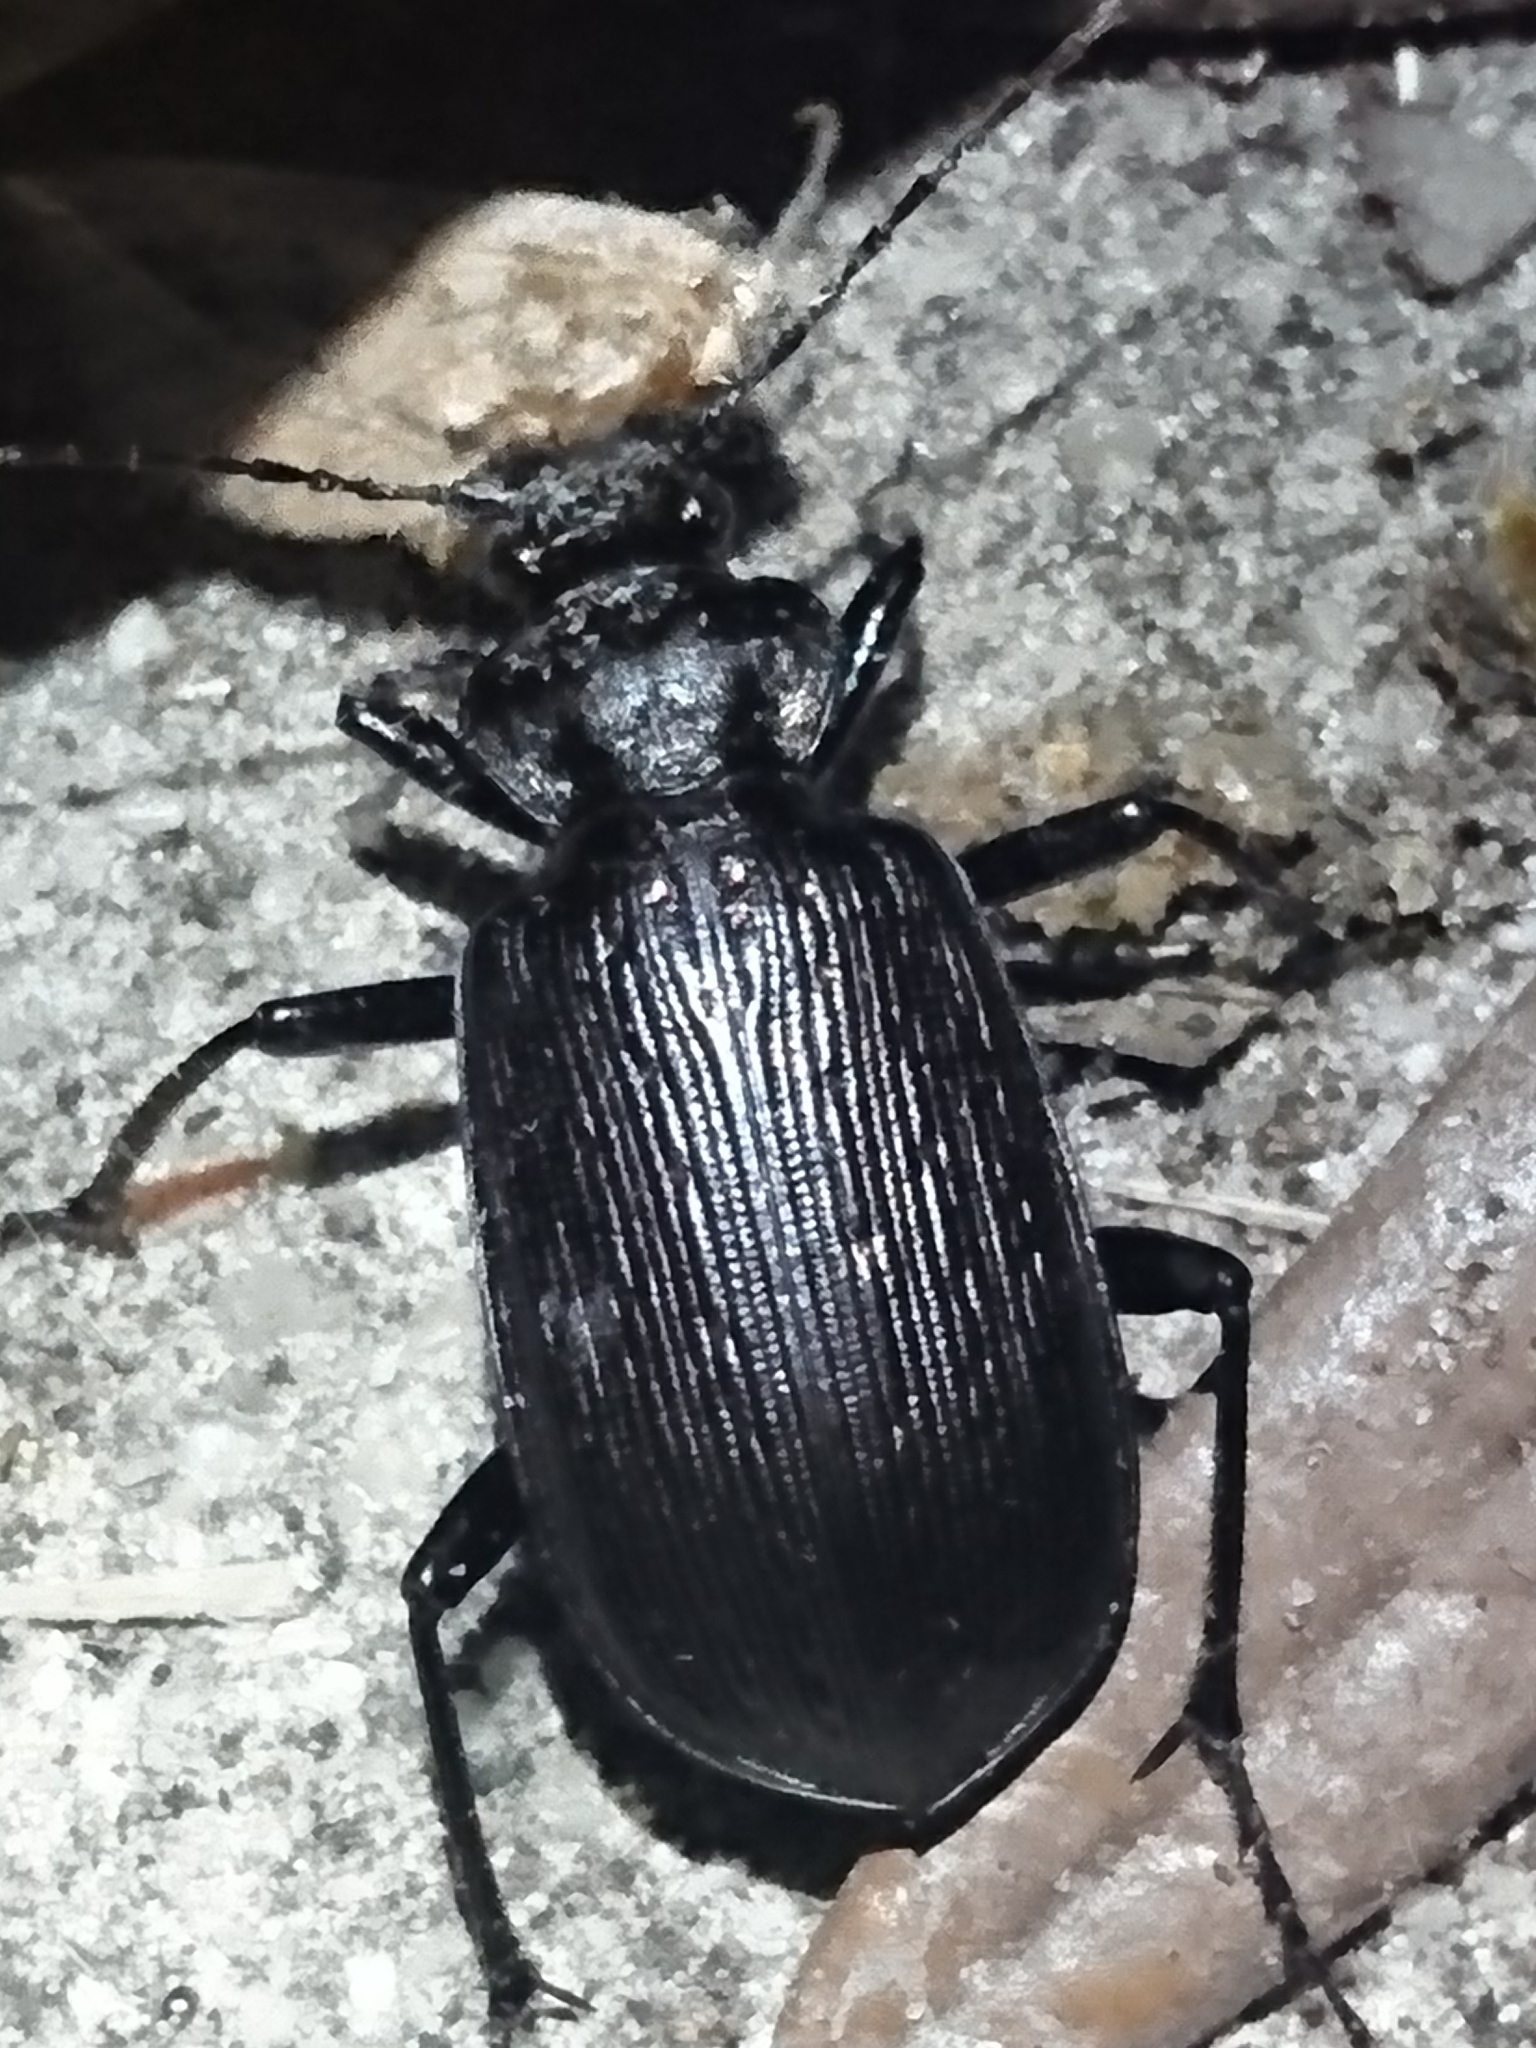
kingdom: Animalia
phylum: Arthropoda
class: Insecta
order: Coleoptera
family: Carabidae
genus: Calosoma
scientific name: Calosoma sayi
